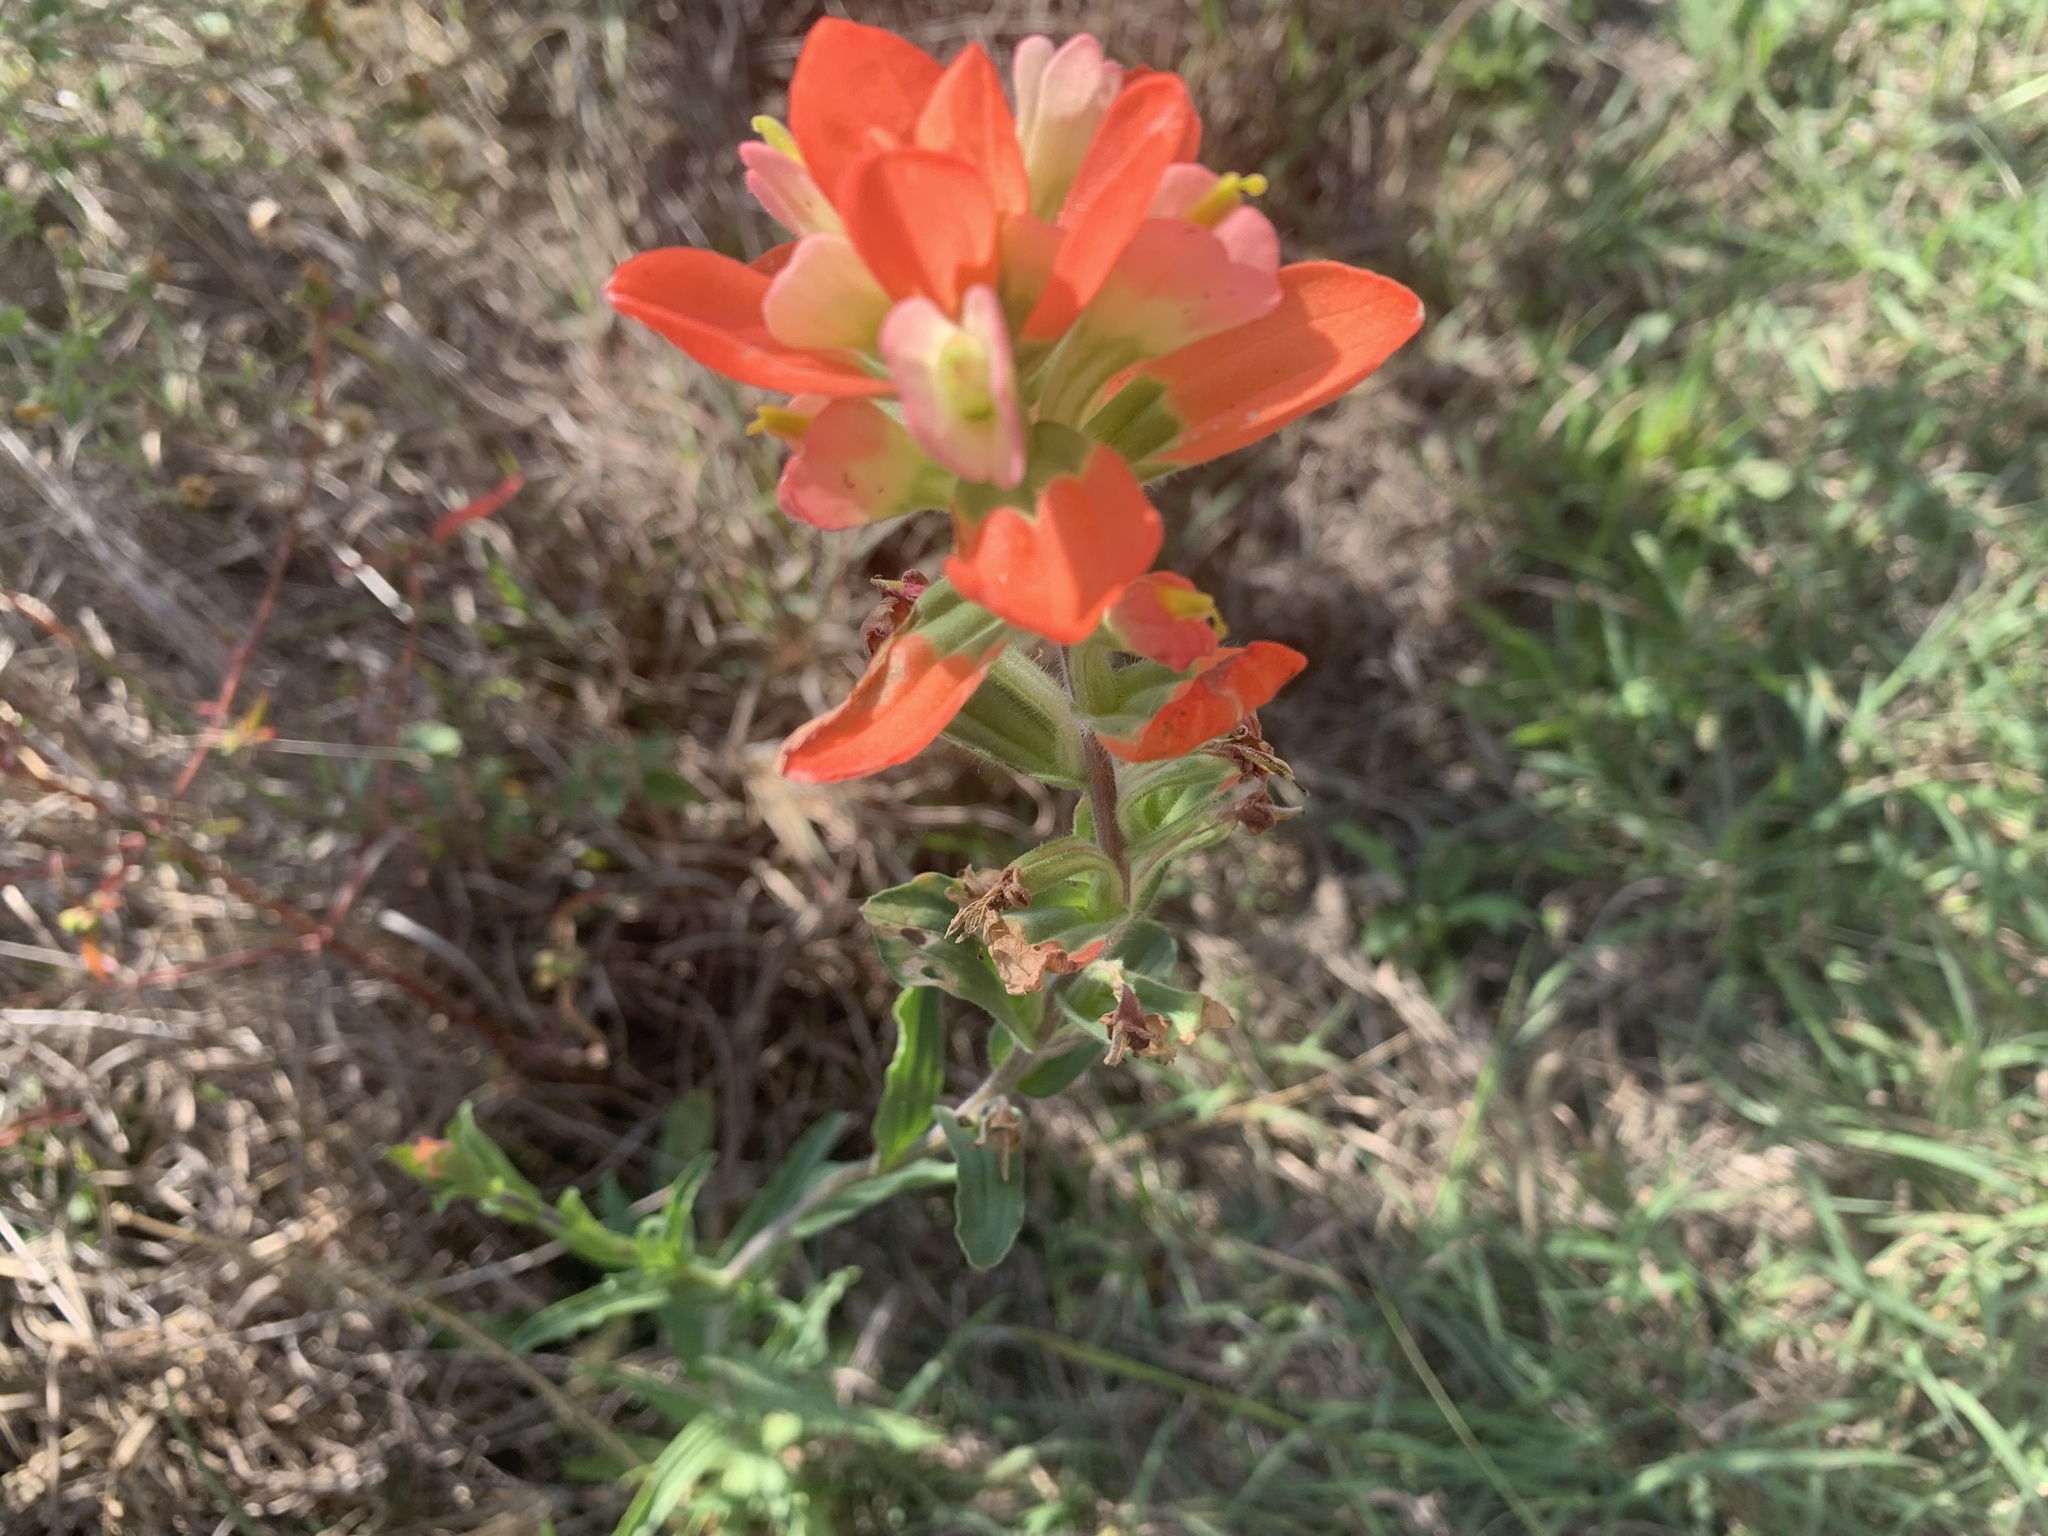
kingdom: Plantae
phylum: Tracheophyta
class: Magnoliopsida
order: Lamiales
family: Orobanchaceae
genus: Castilleja
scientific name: Castilleja indivisa
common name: Texas paintbrush
